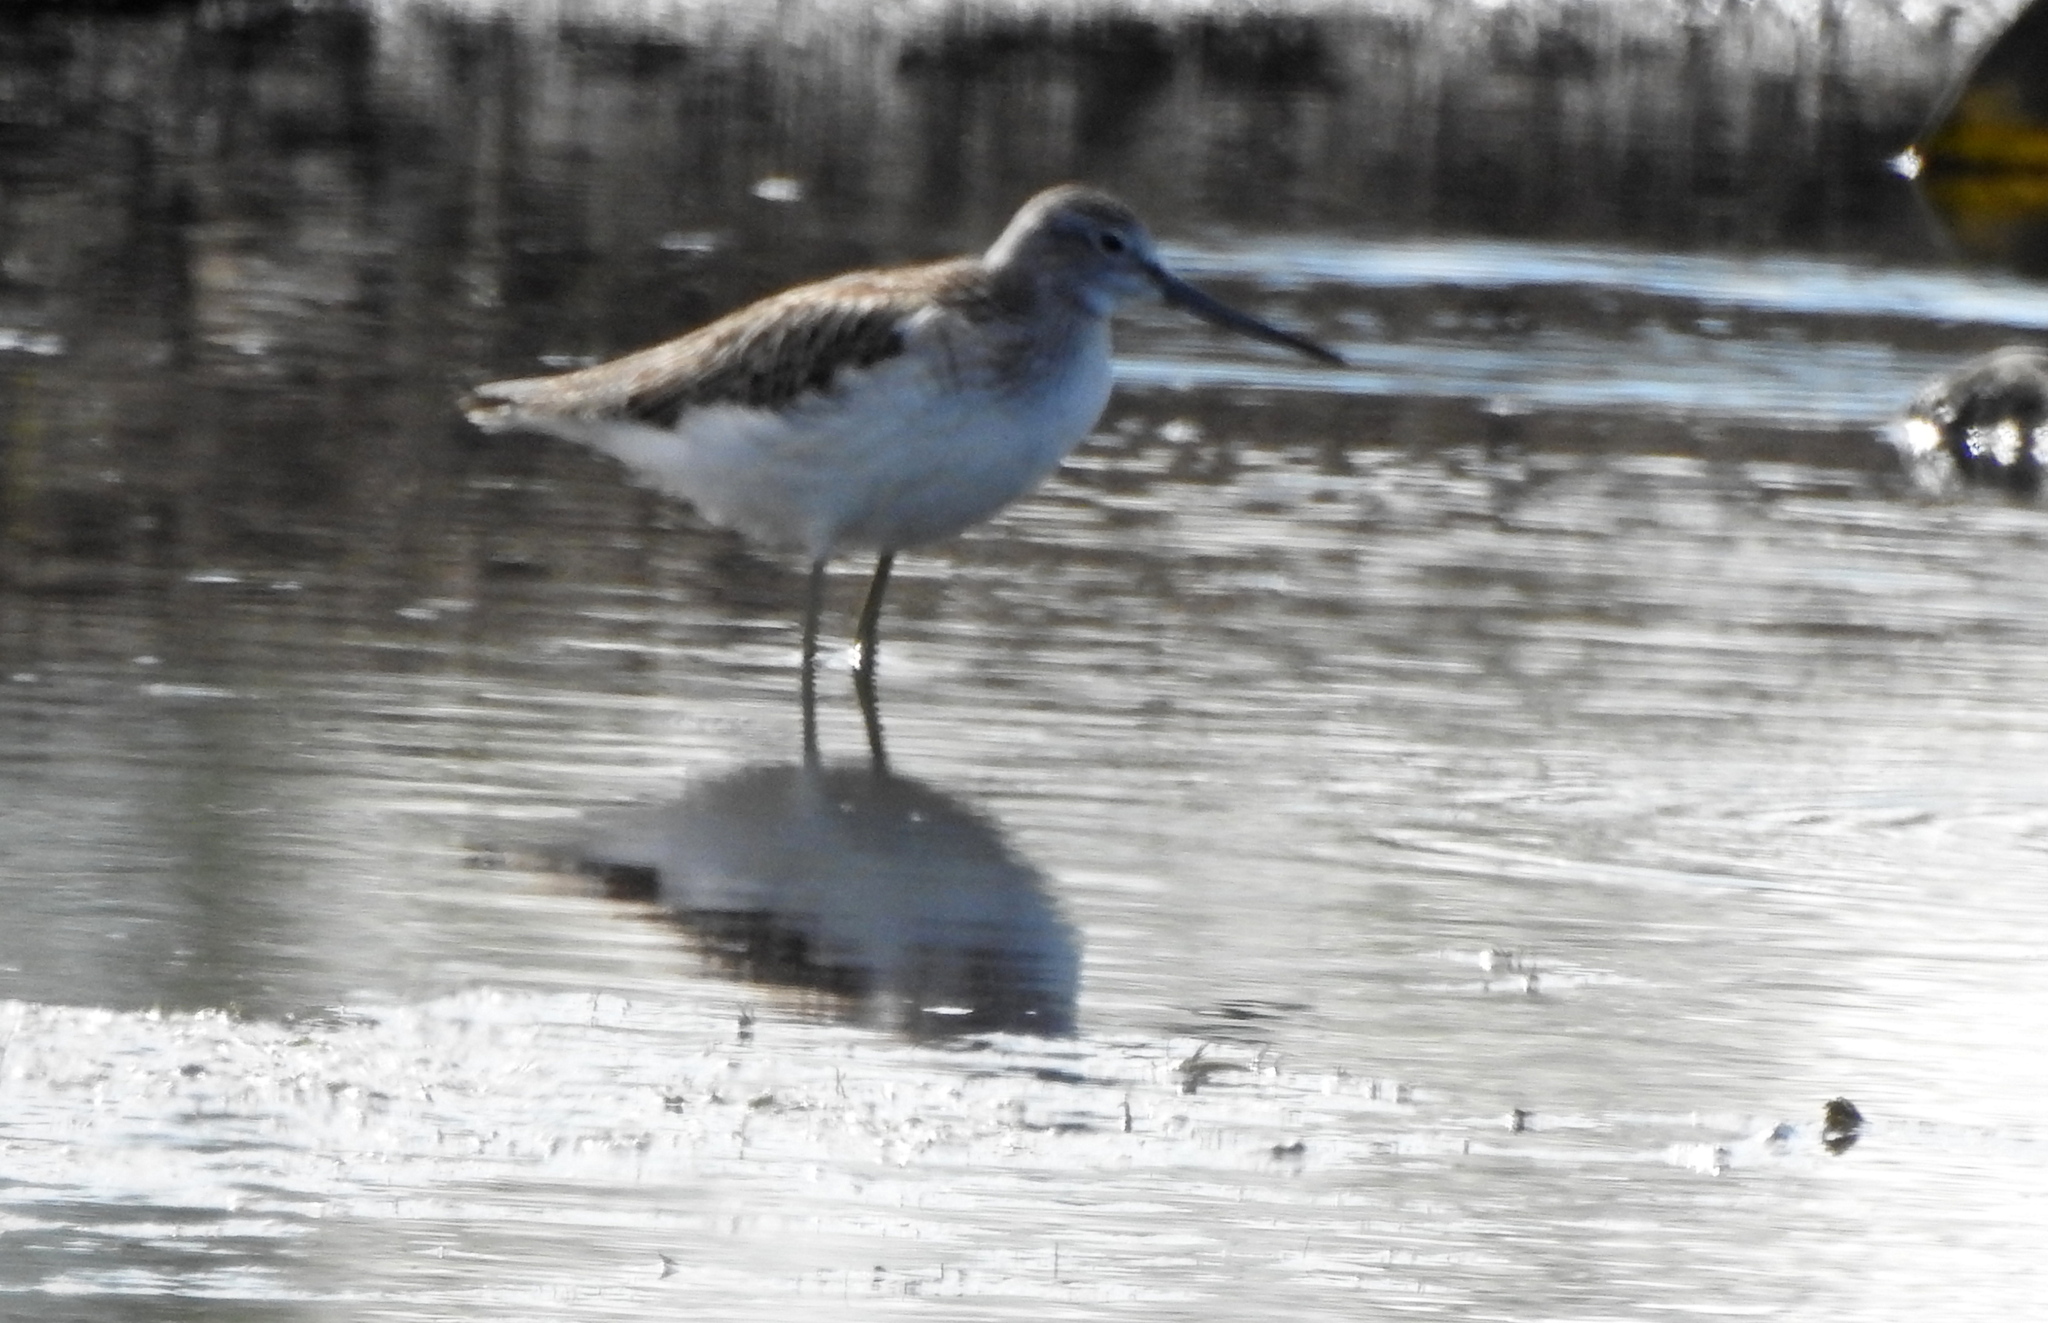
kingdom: Animalia
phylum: Chordata
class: Aves
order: Charadriiformes
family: Scolopacidae
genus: Tringa
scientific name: Tringa nebularia
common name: Common greenshank
